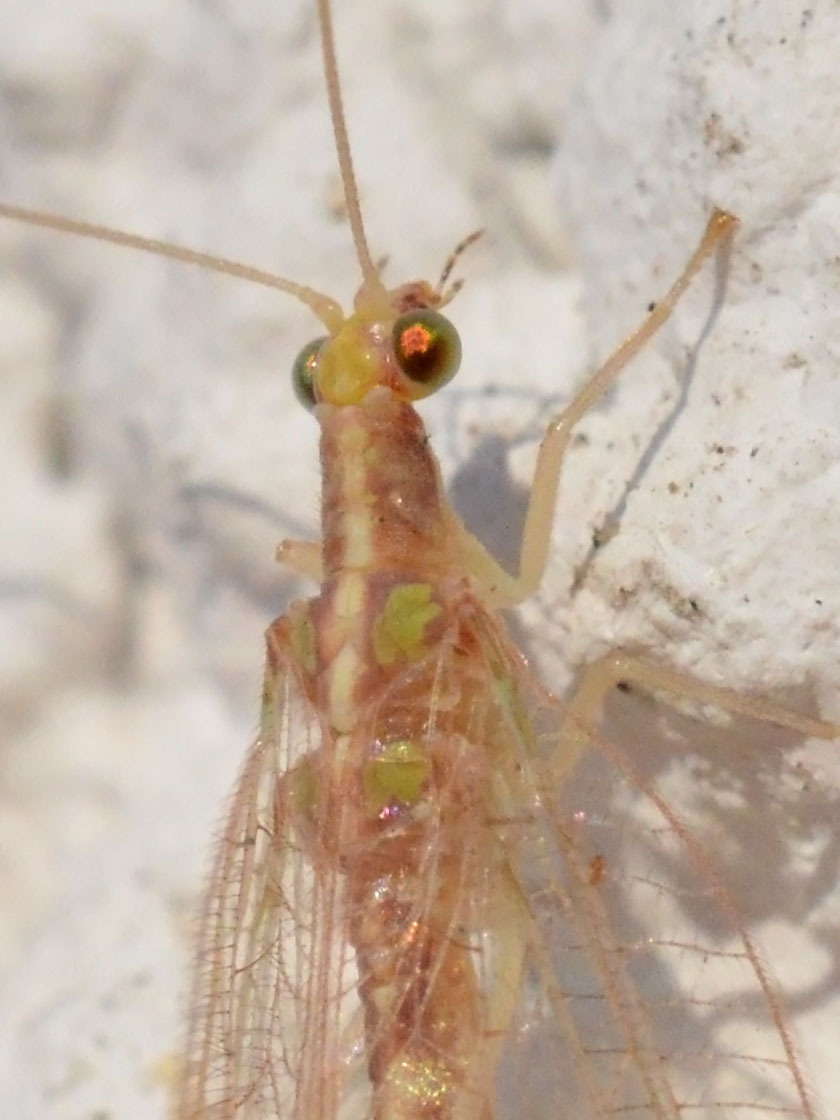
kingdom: Animalia
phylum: Arthropoda
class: Insecta
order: Neuroptera
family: Chrysopidae
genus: Chrysoperla
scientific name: Chrysoperla
